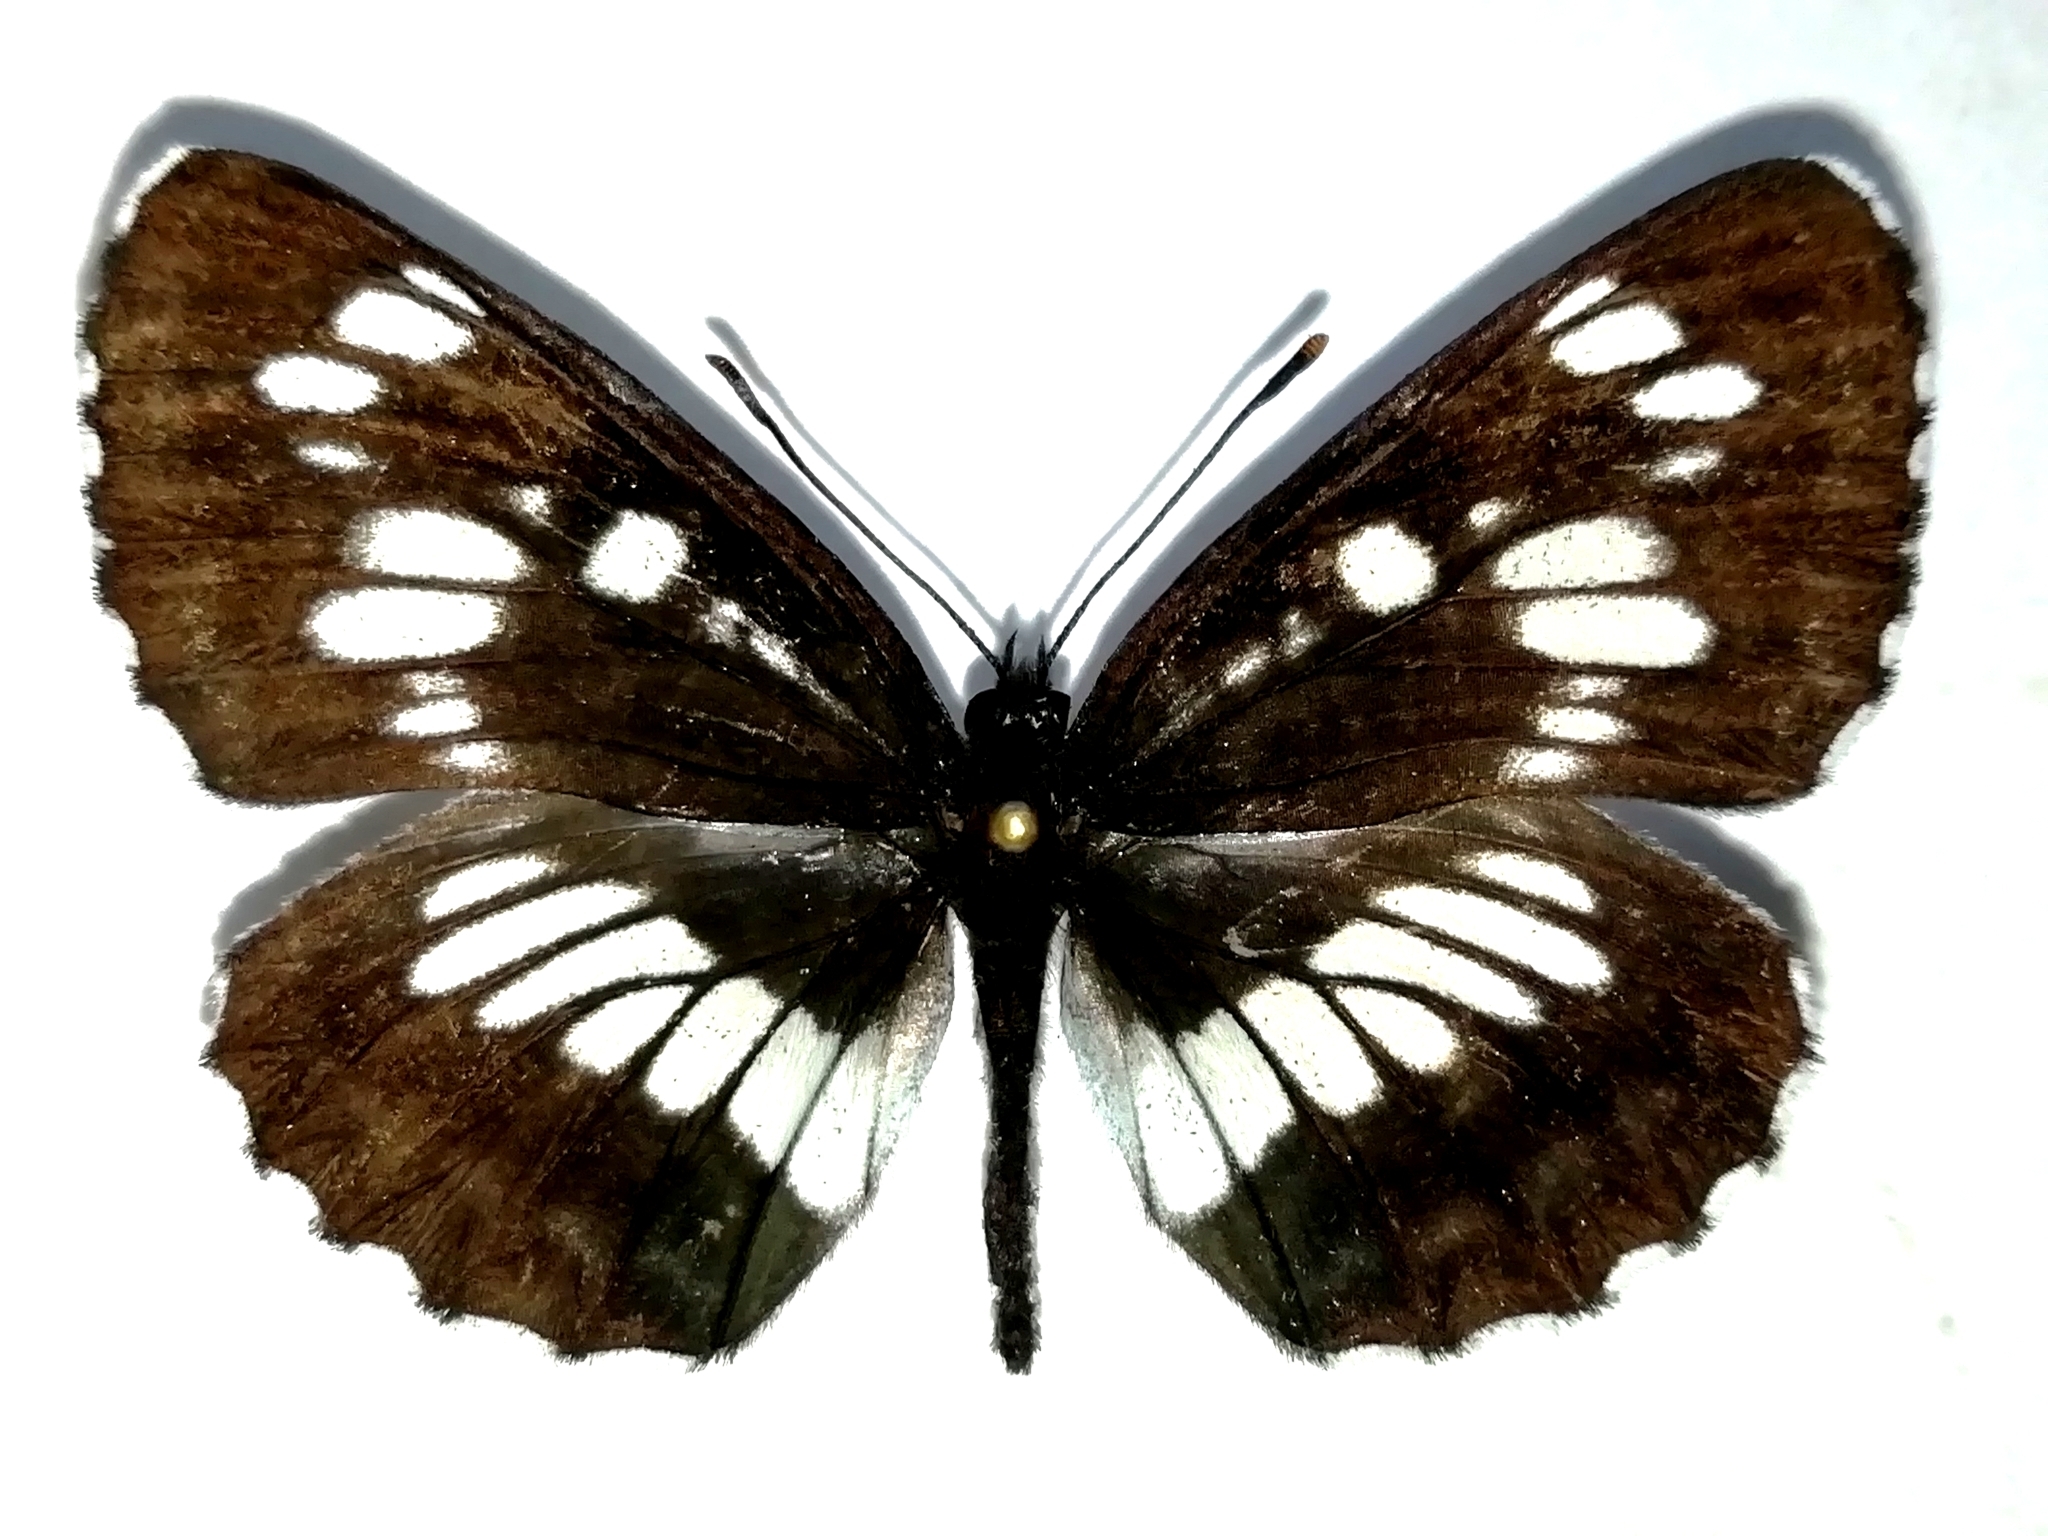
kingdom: Animalia
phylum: Arthropoda
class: Insecta
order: Lepidoptera
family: Nymphalidae
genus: Neptis
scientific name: Neptis rivularis
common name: Hungarian glider
